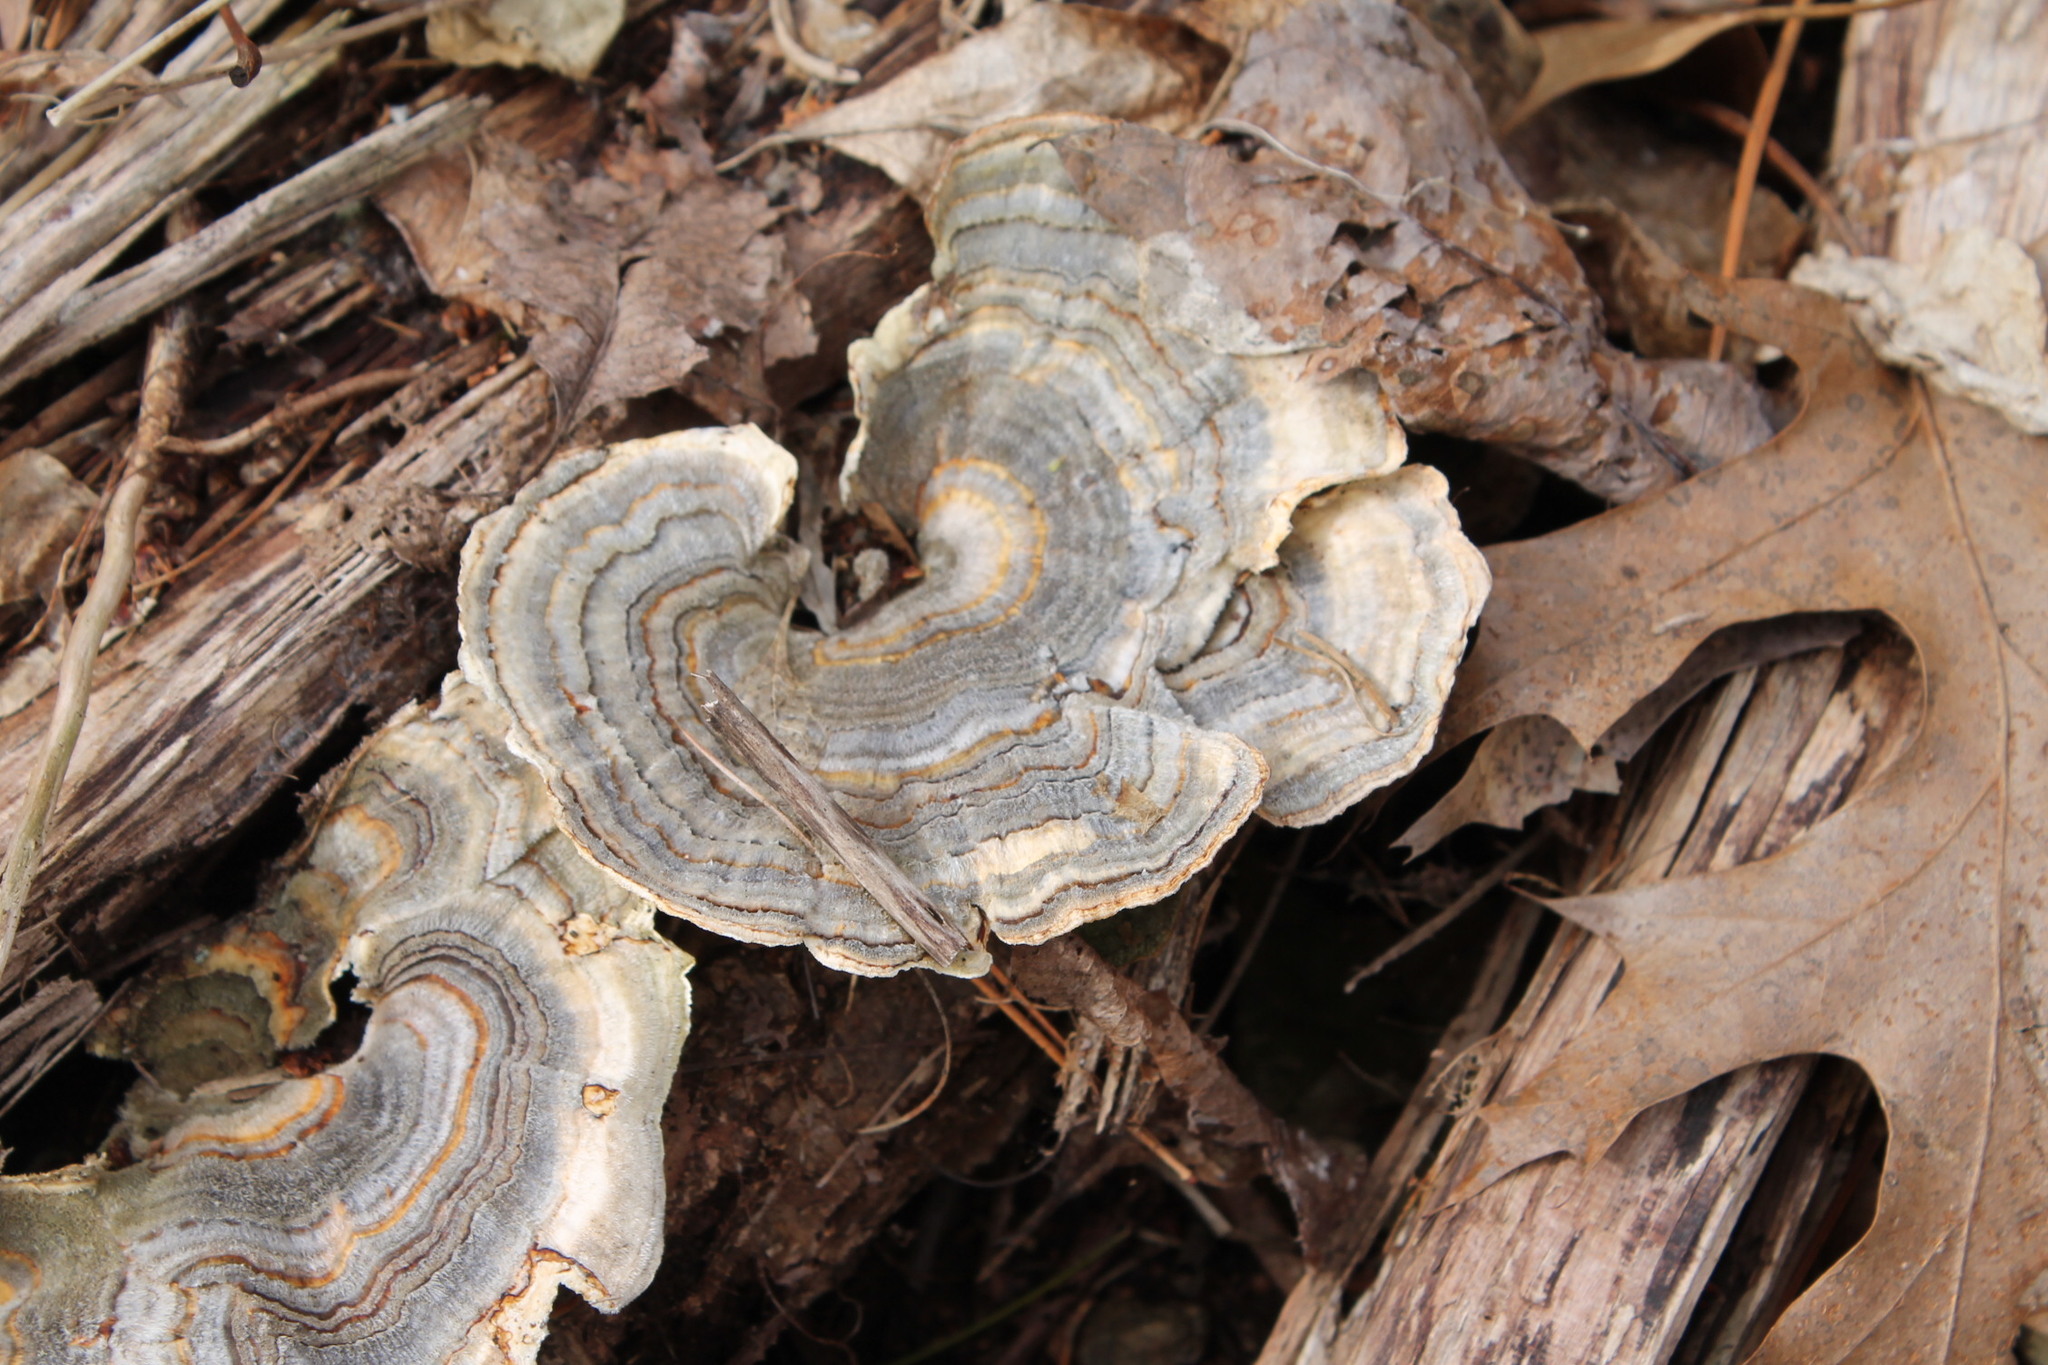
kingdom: Fungi
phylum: Basidiomycota
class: Agaricomycetes
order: Polyporales
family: Polyporaceae
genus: Trametes
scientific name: Trametes versicolor
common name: Turkeytail
